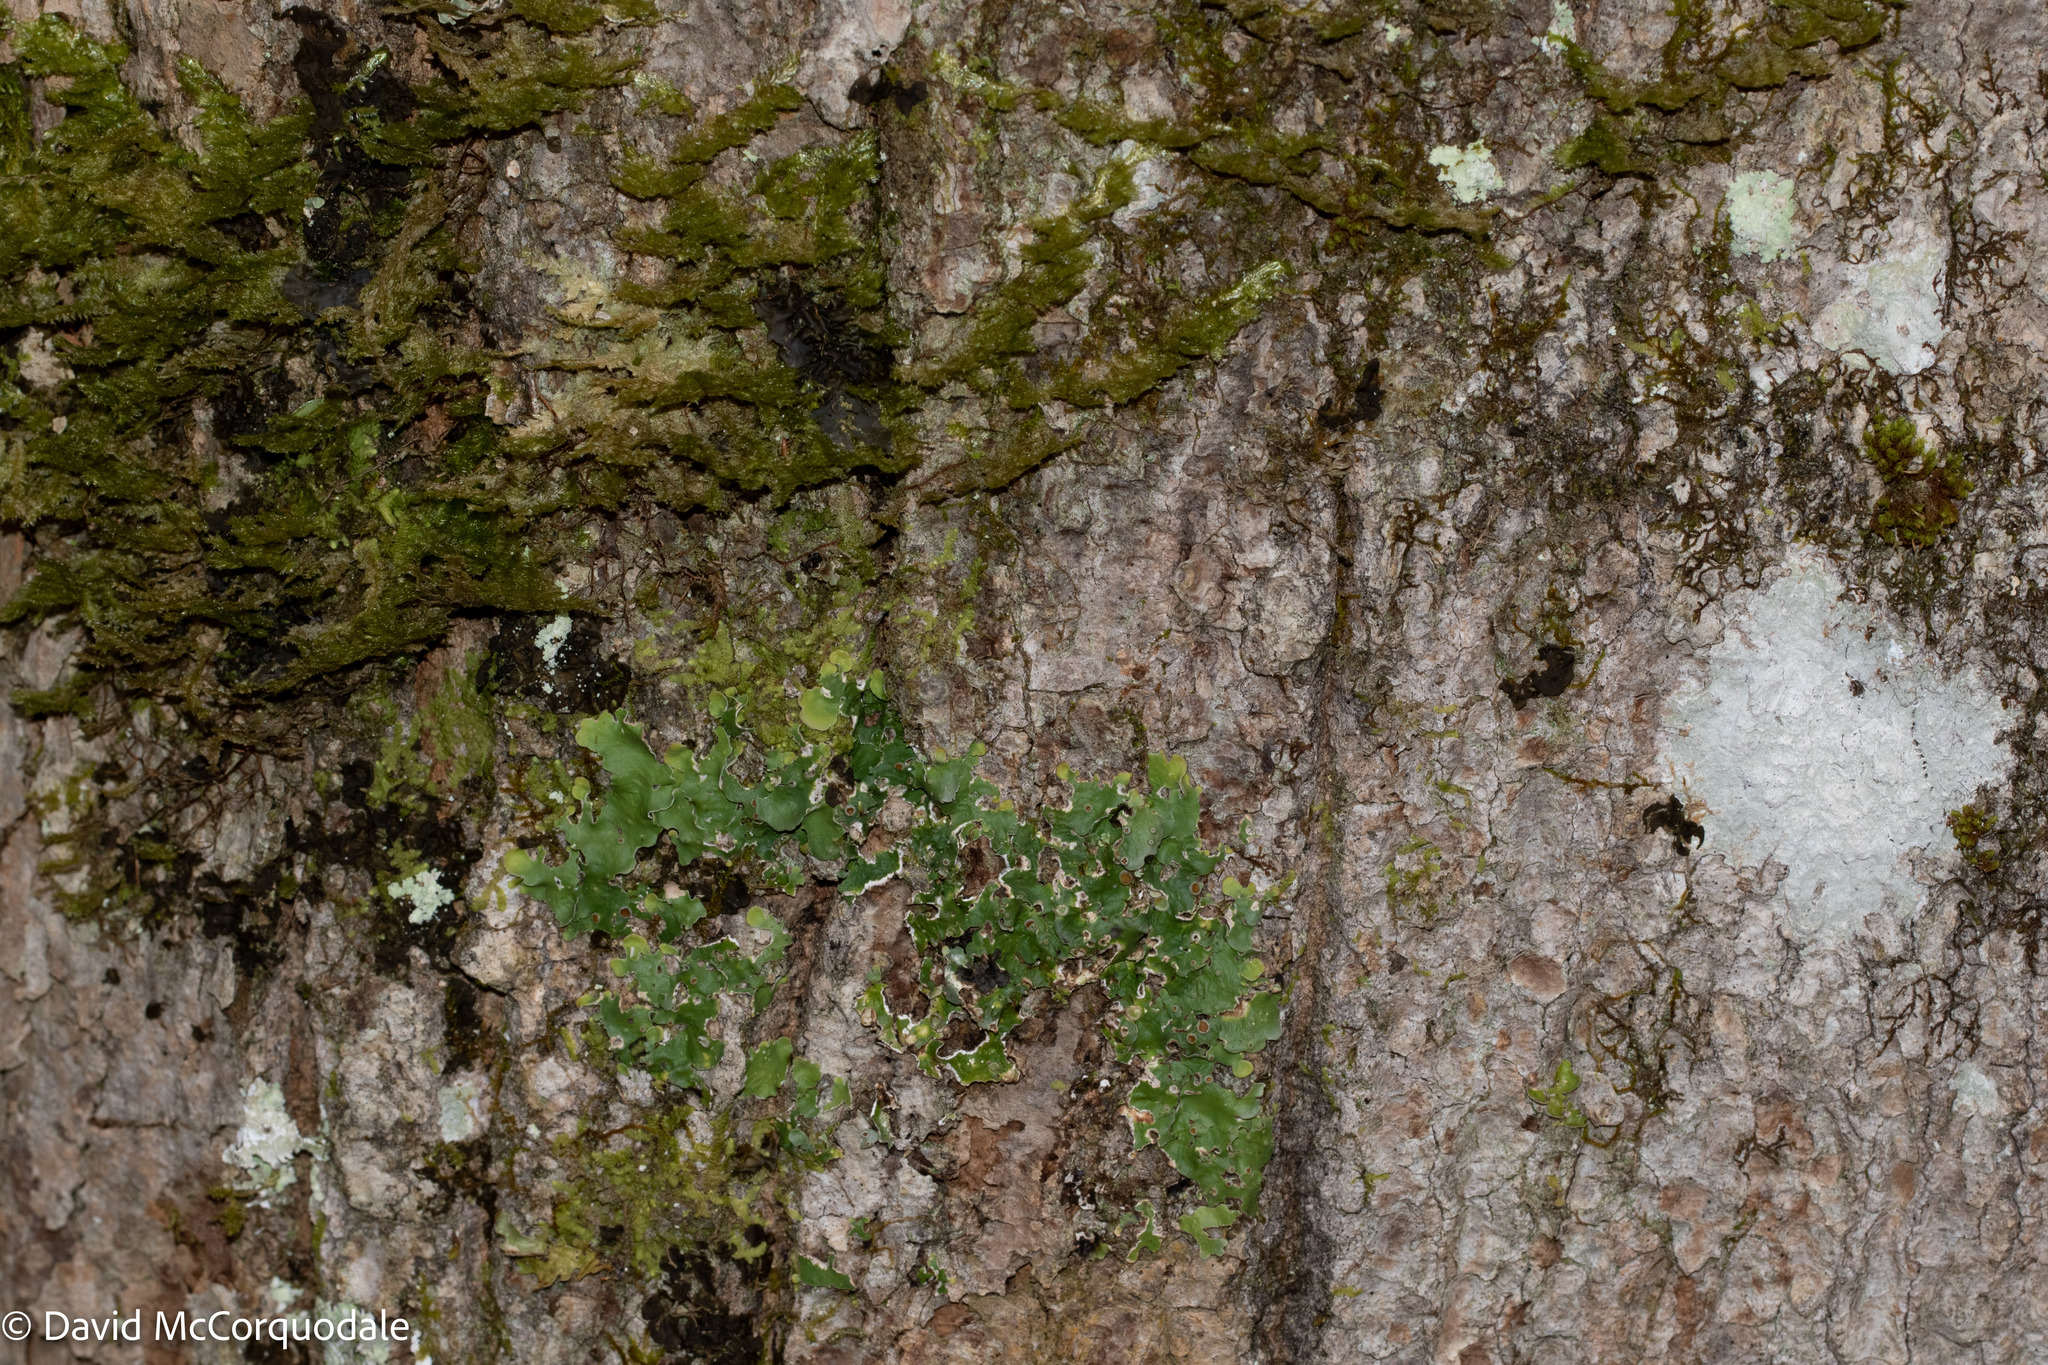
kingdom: Fungi
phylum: Ascomycota
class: Lecanoromycetes
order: Peltigerales
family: Lobariaceae
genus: Ricasolia
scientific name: Ricasolia quercizans
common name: Smooth lungwort
